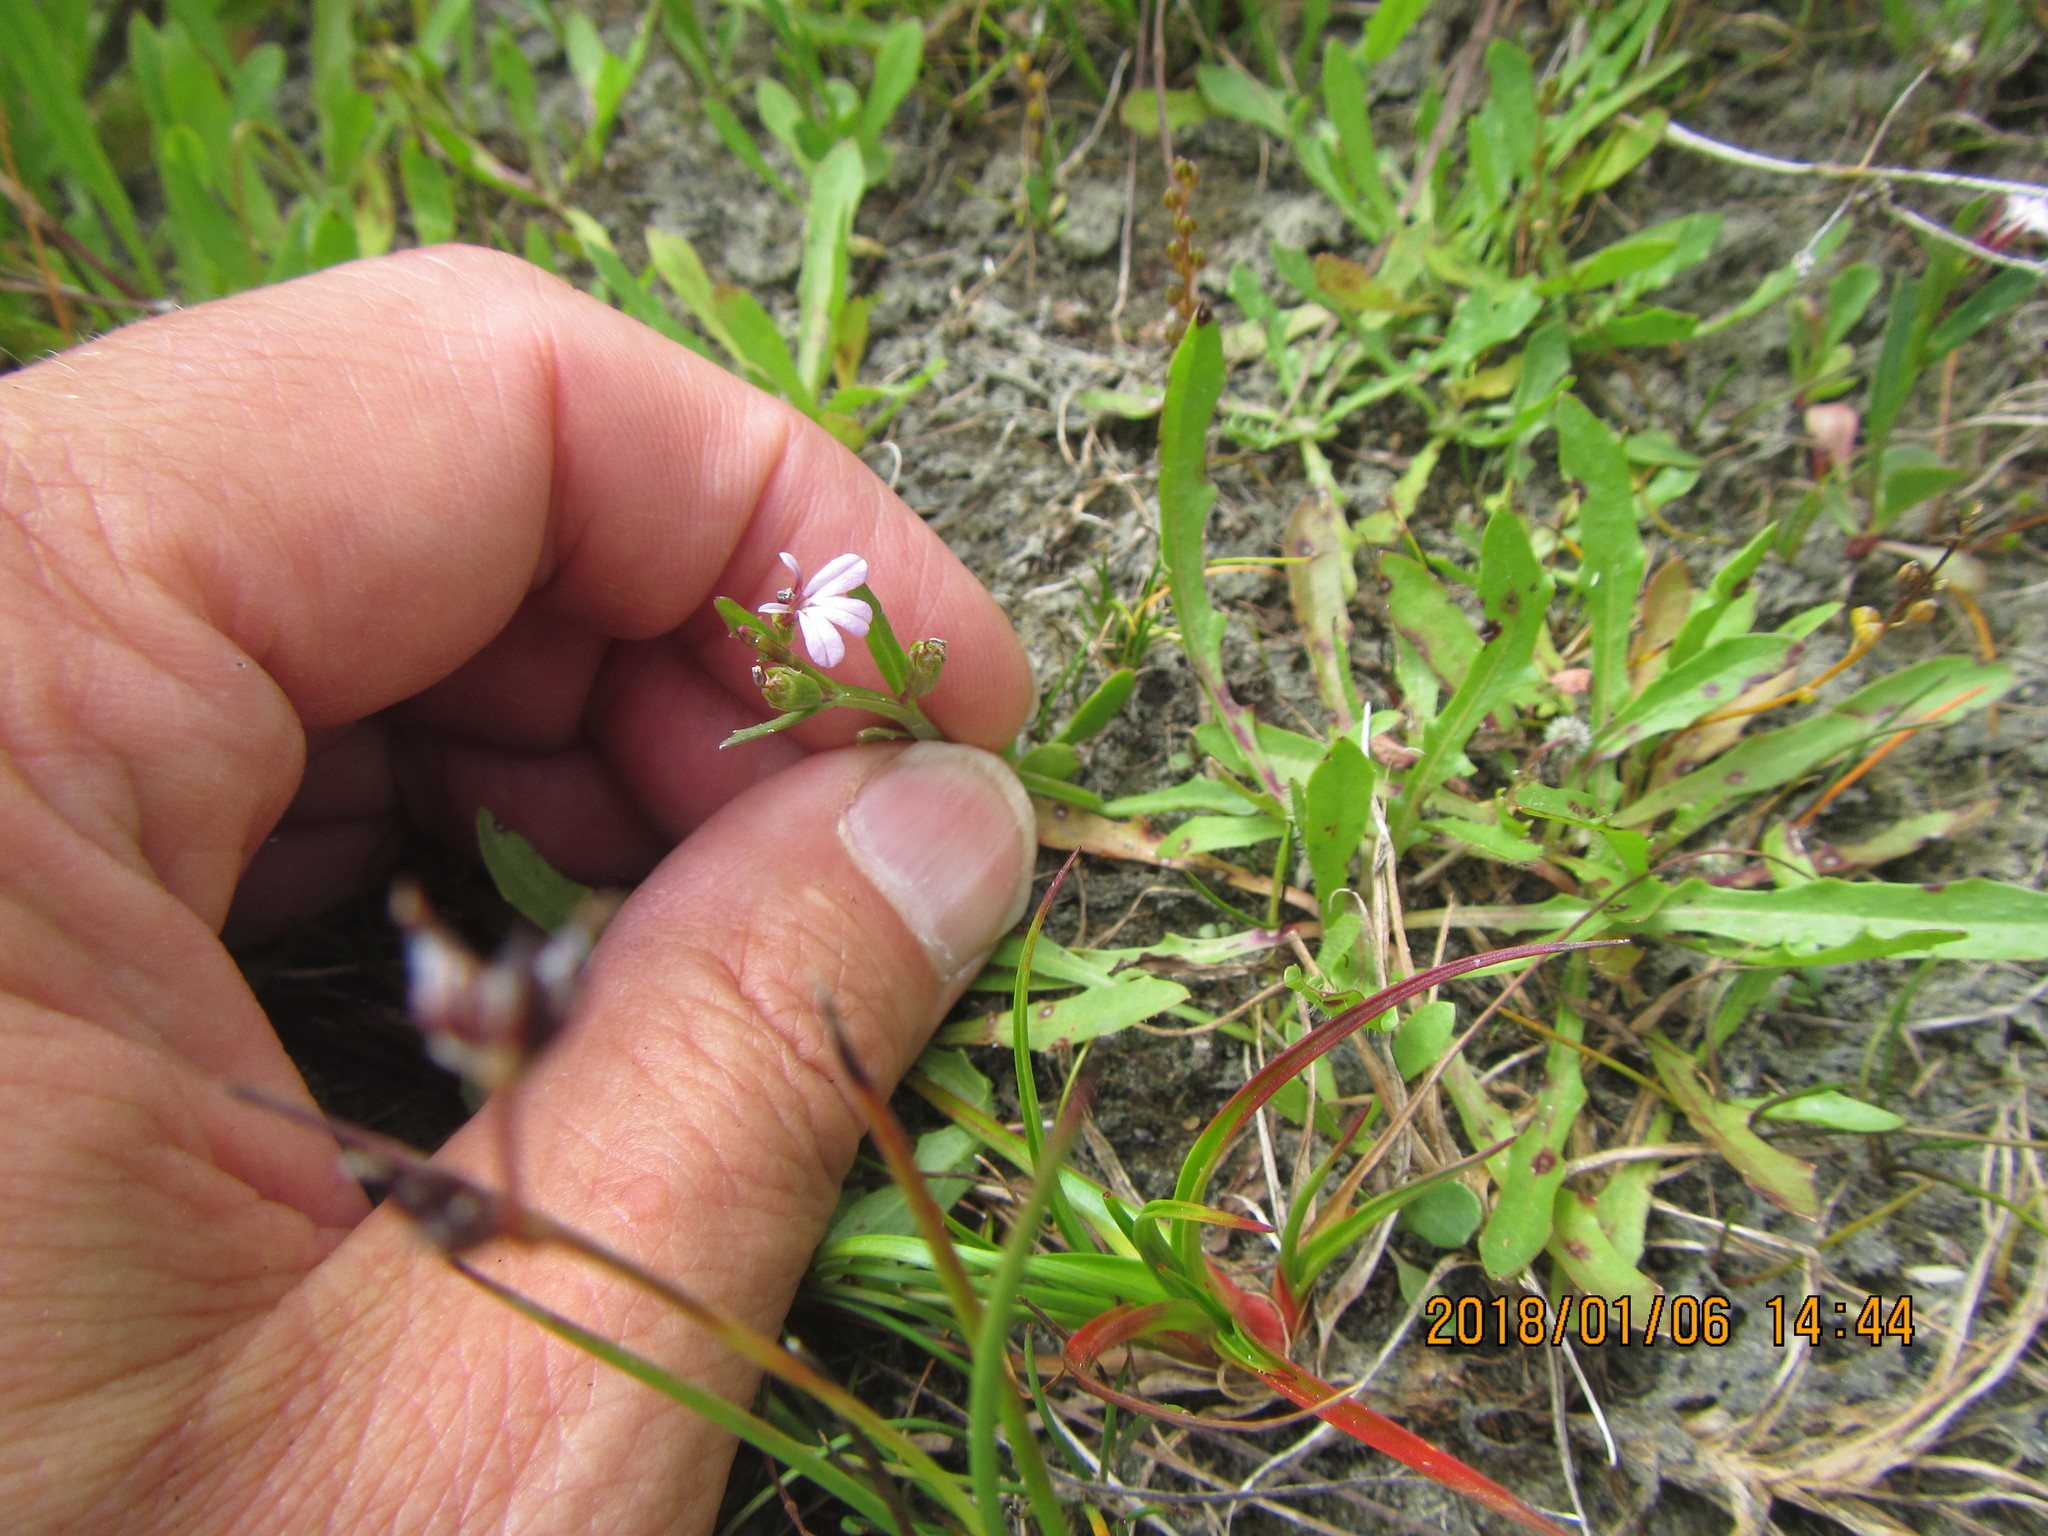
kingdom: Plantae
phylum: Tracheophyta
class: Magnoliopsida
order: Asterales
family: Campanulaceae
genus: Lobelia
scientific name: Lobelia anceps
